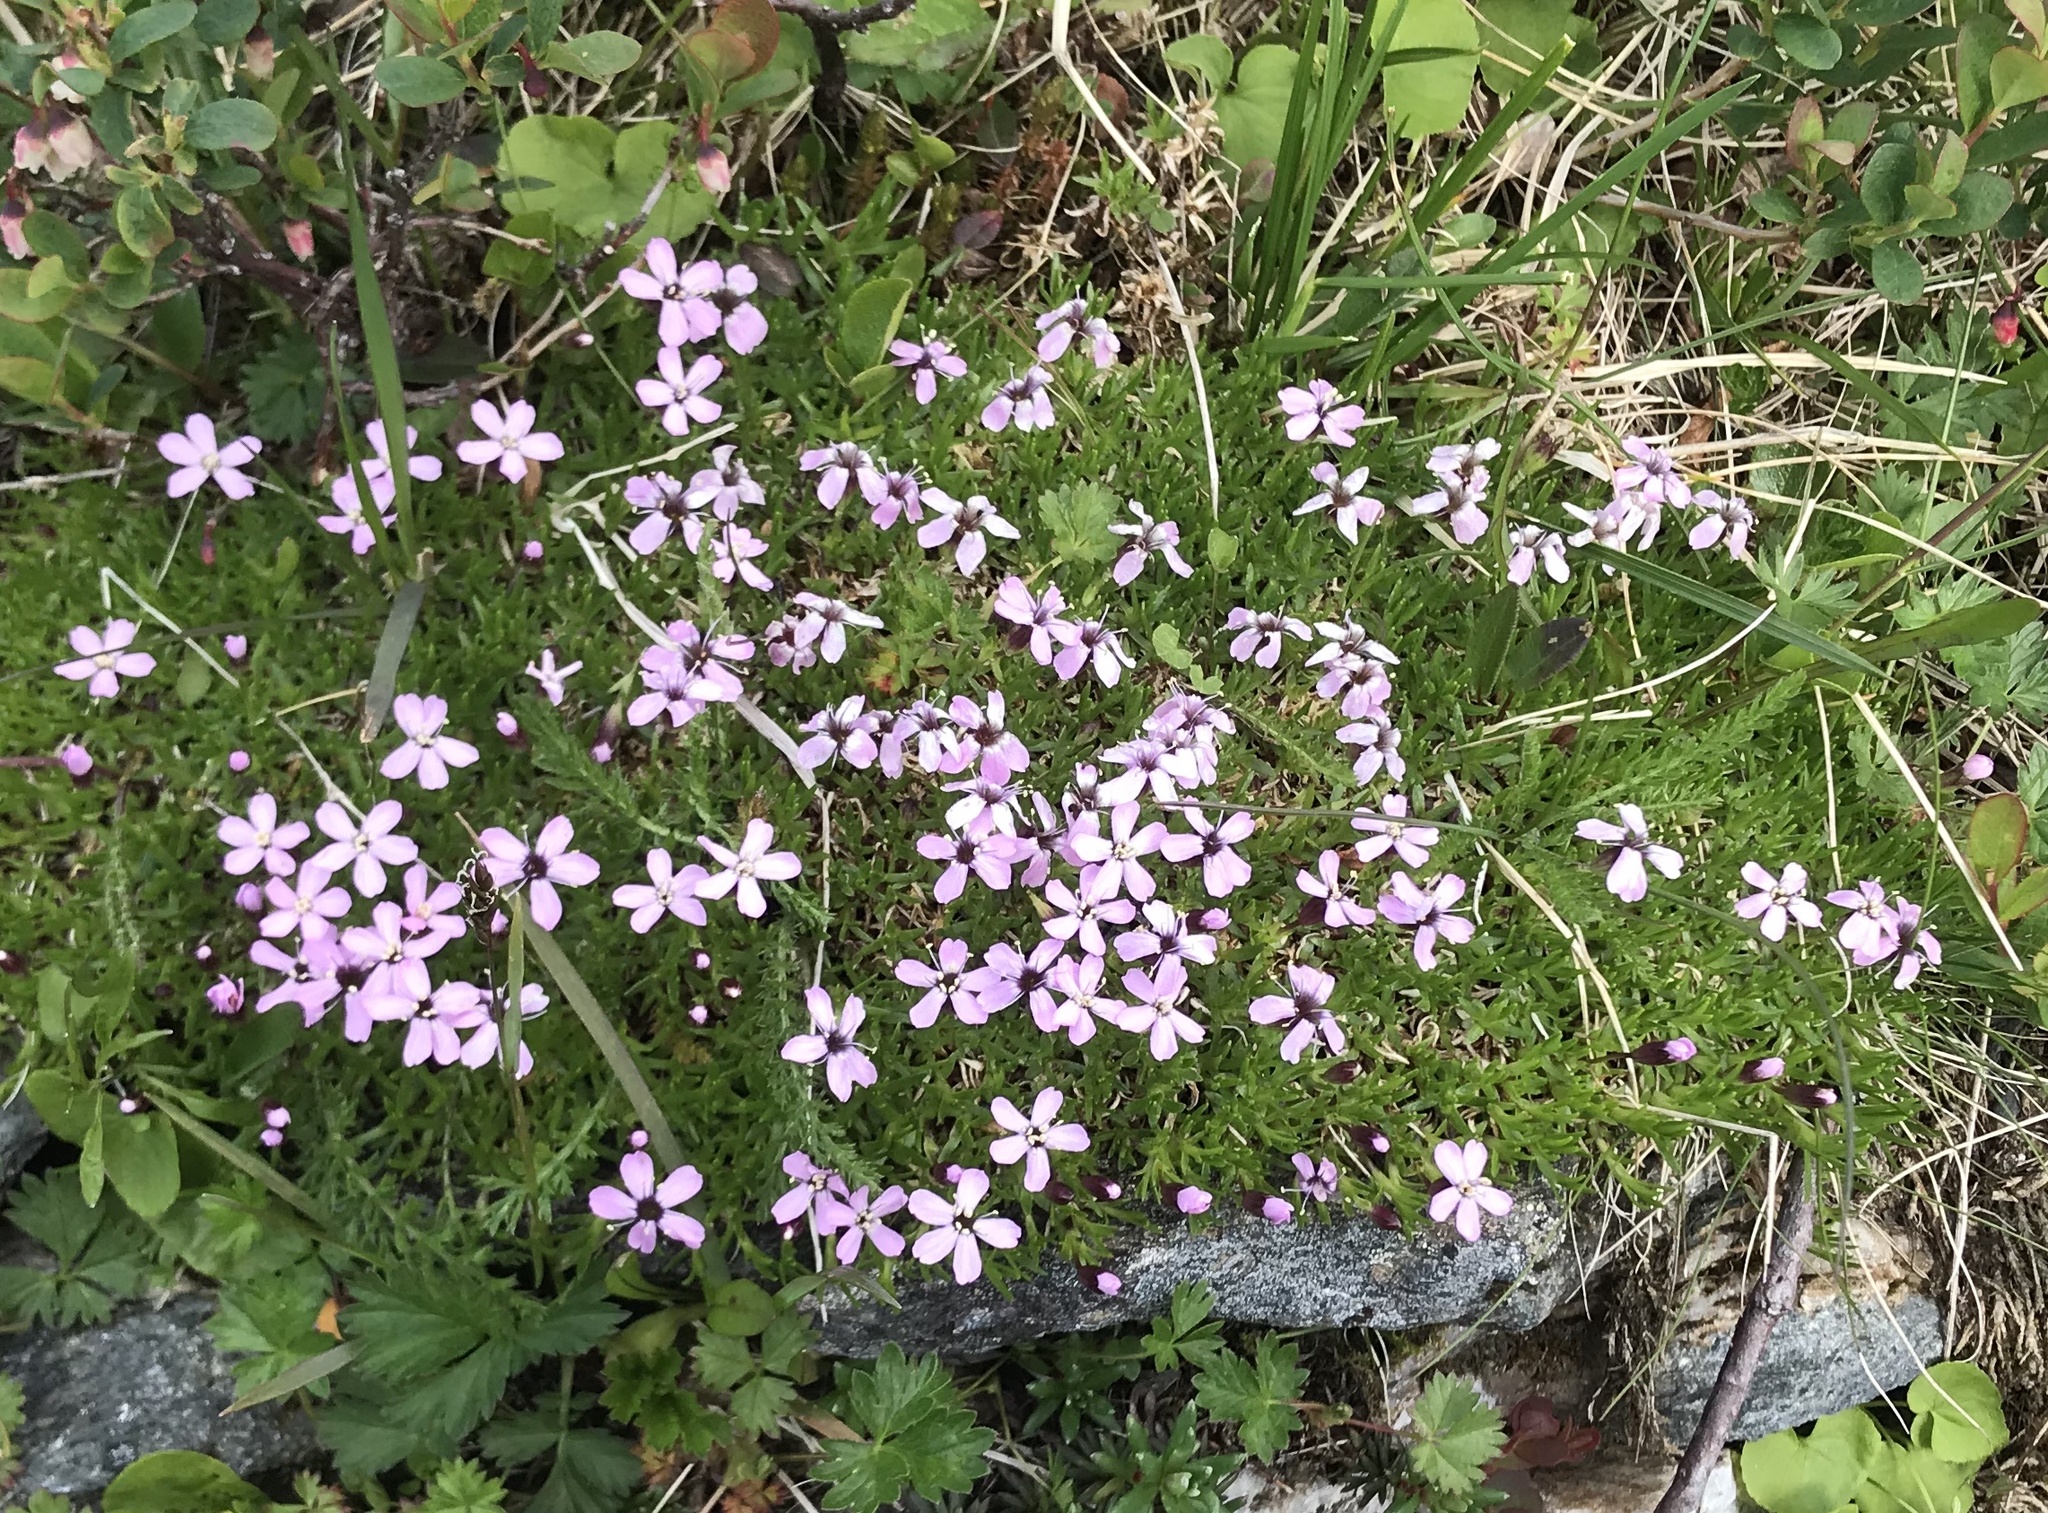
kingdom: Plantae
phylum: Tracheophyta
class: Magnoliopsida
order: Caryophyllales
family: Caryophyllaceae
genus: Silene
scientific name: Silene acaulis
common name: Moss campion
